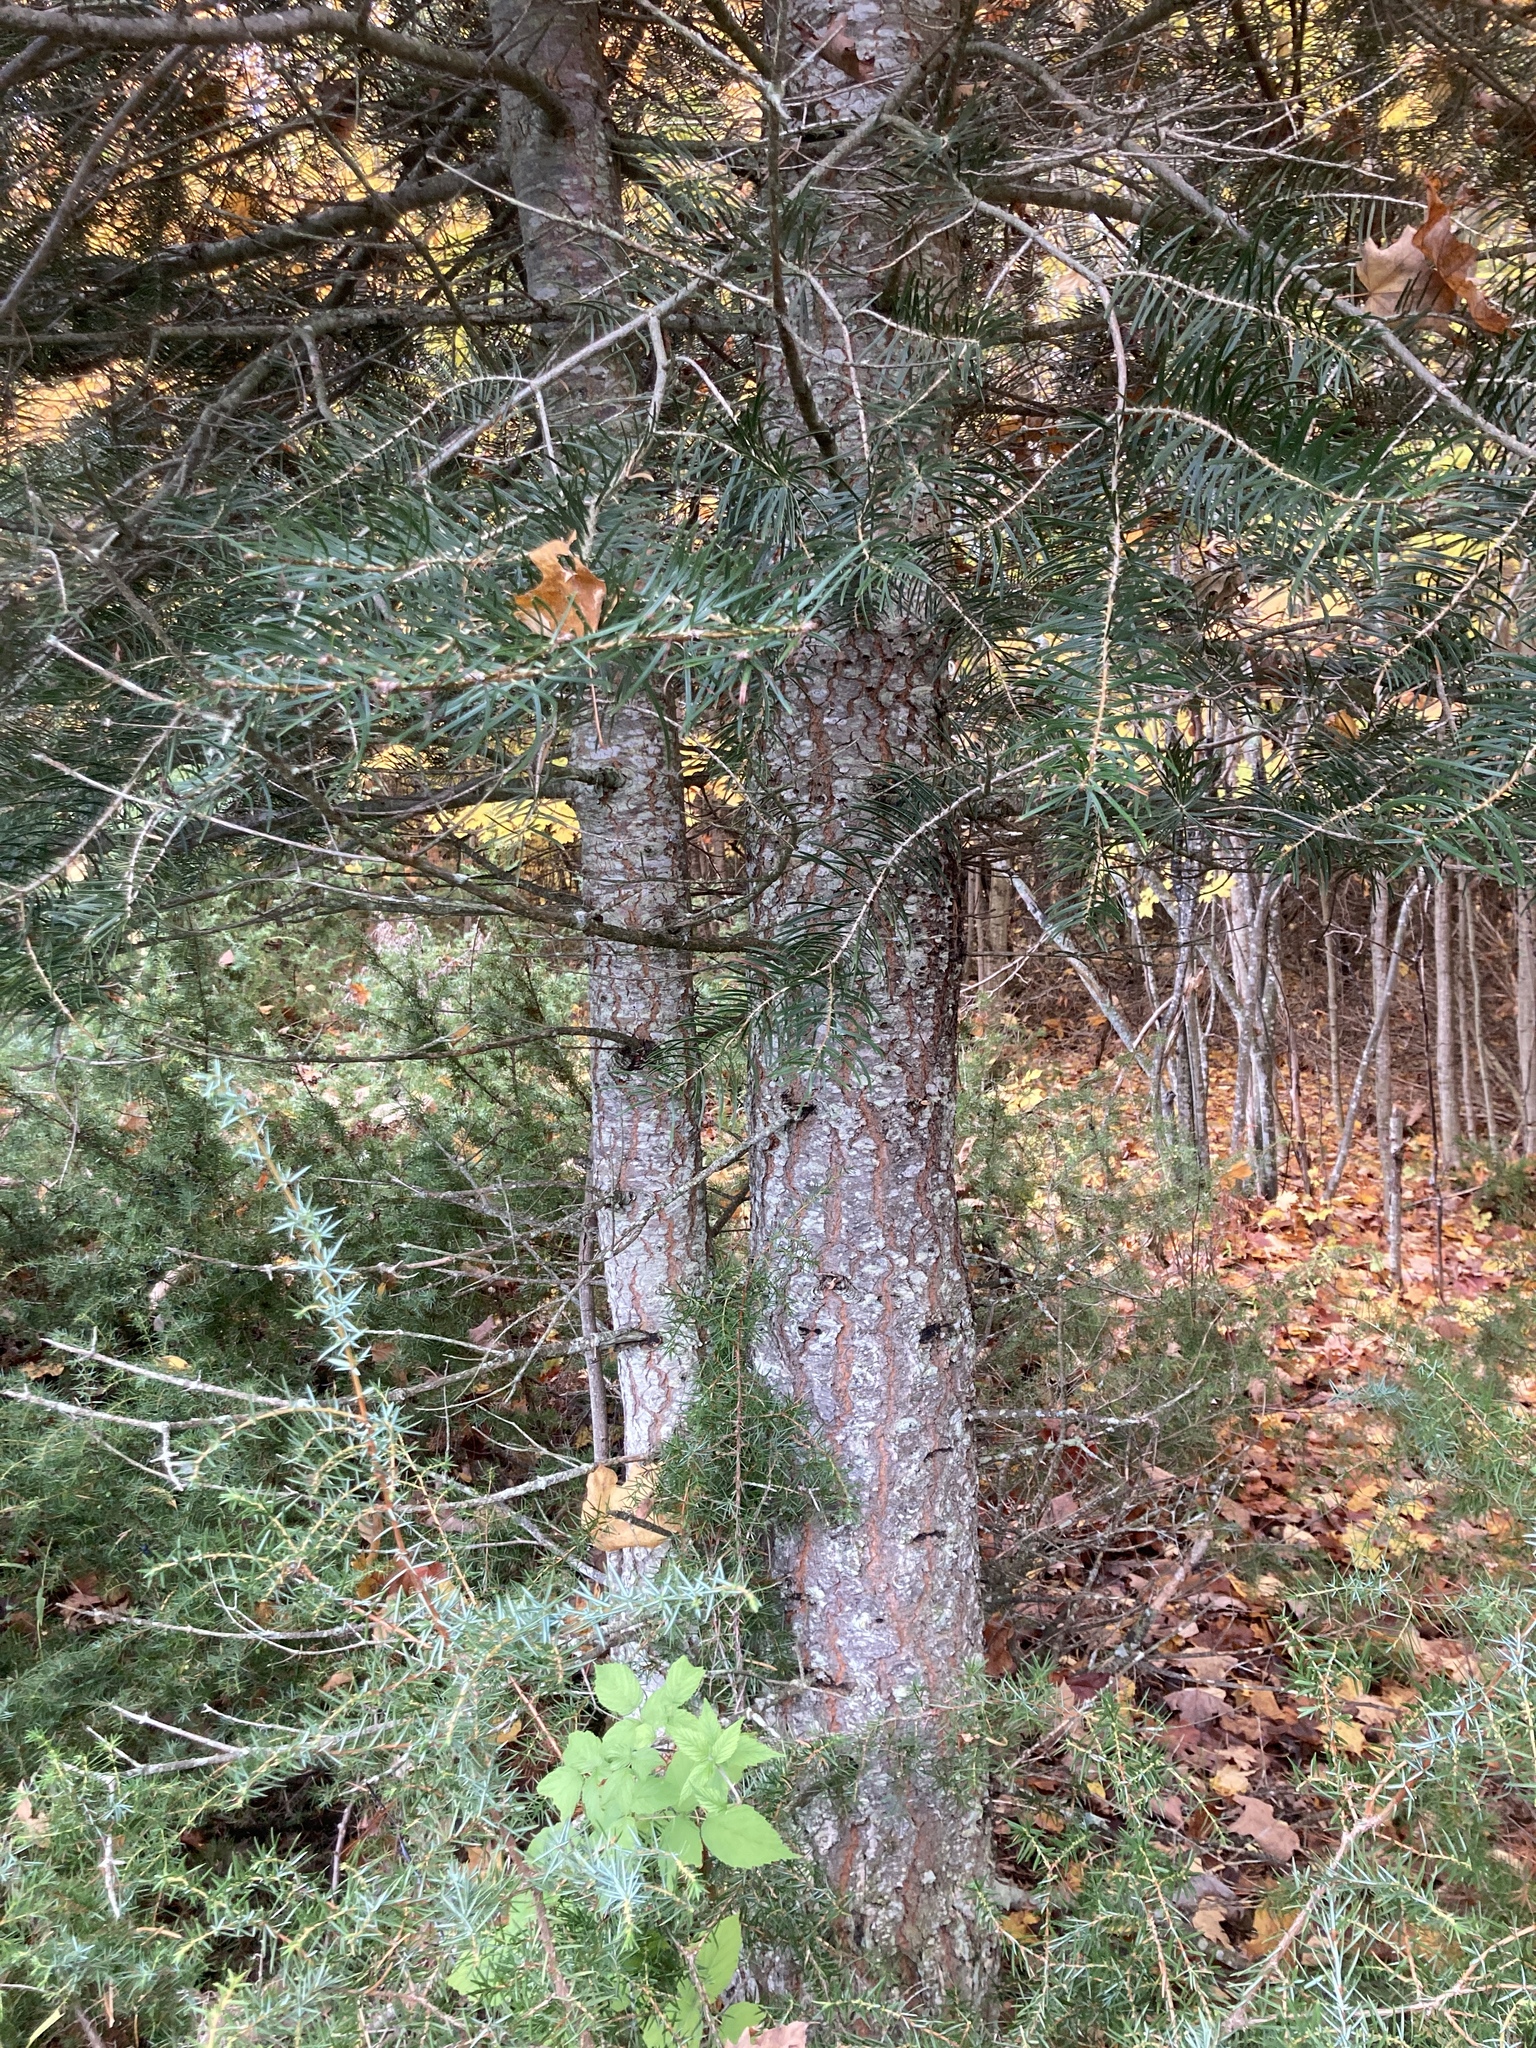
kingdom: Plantae
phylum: Tracheophyta
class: Pinopsida
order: Pinales
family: Pinaceae
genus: Abies
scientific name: Abies balsamea
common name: Balsam fir
